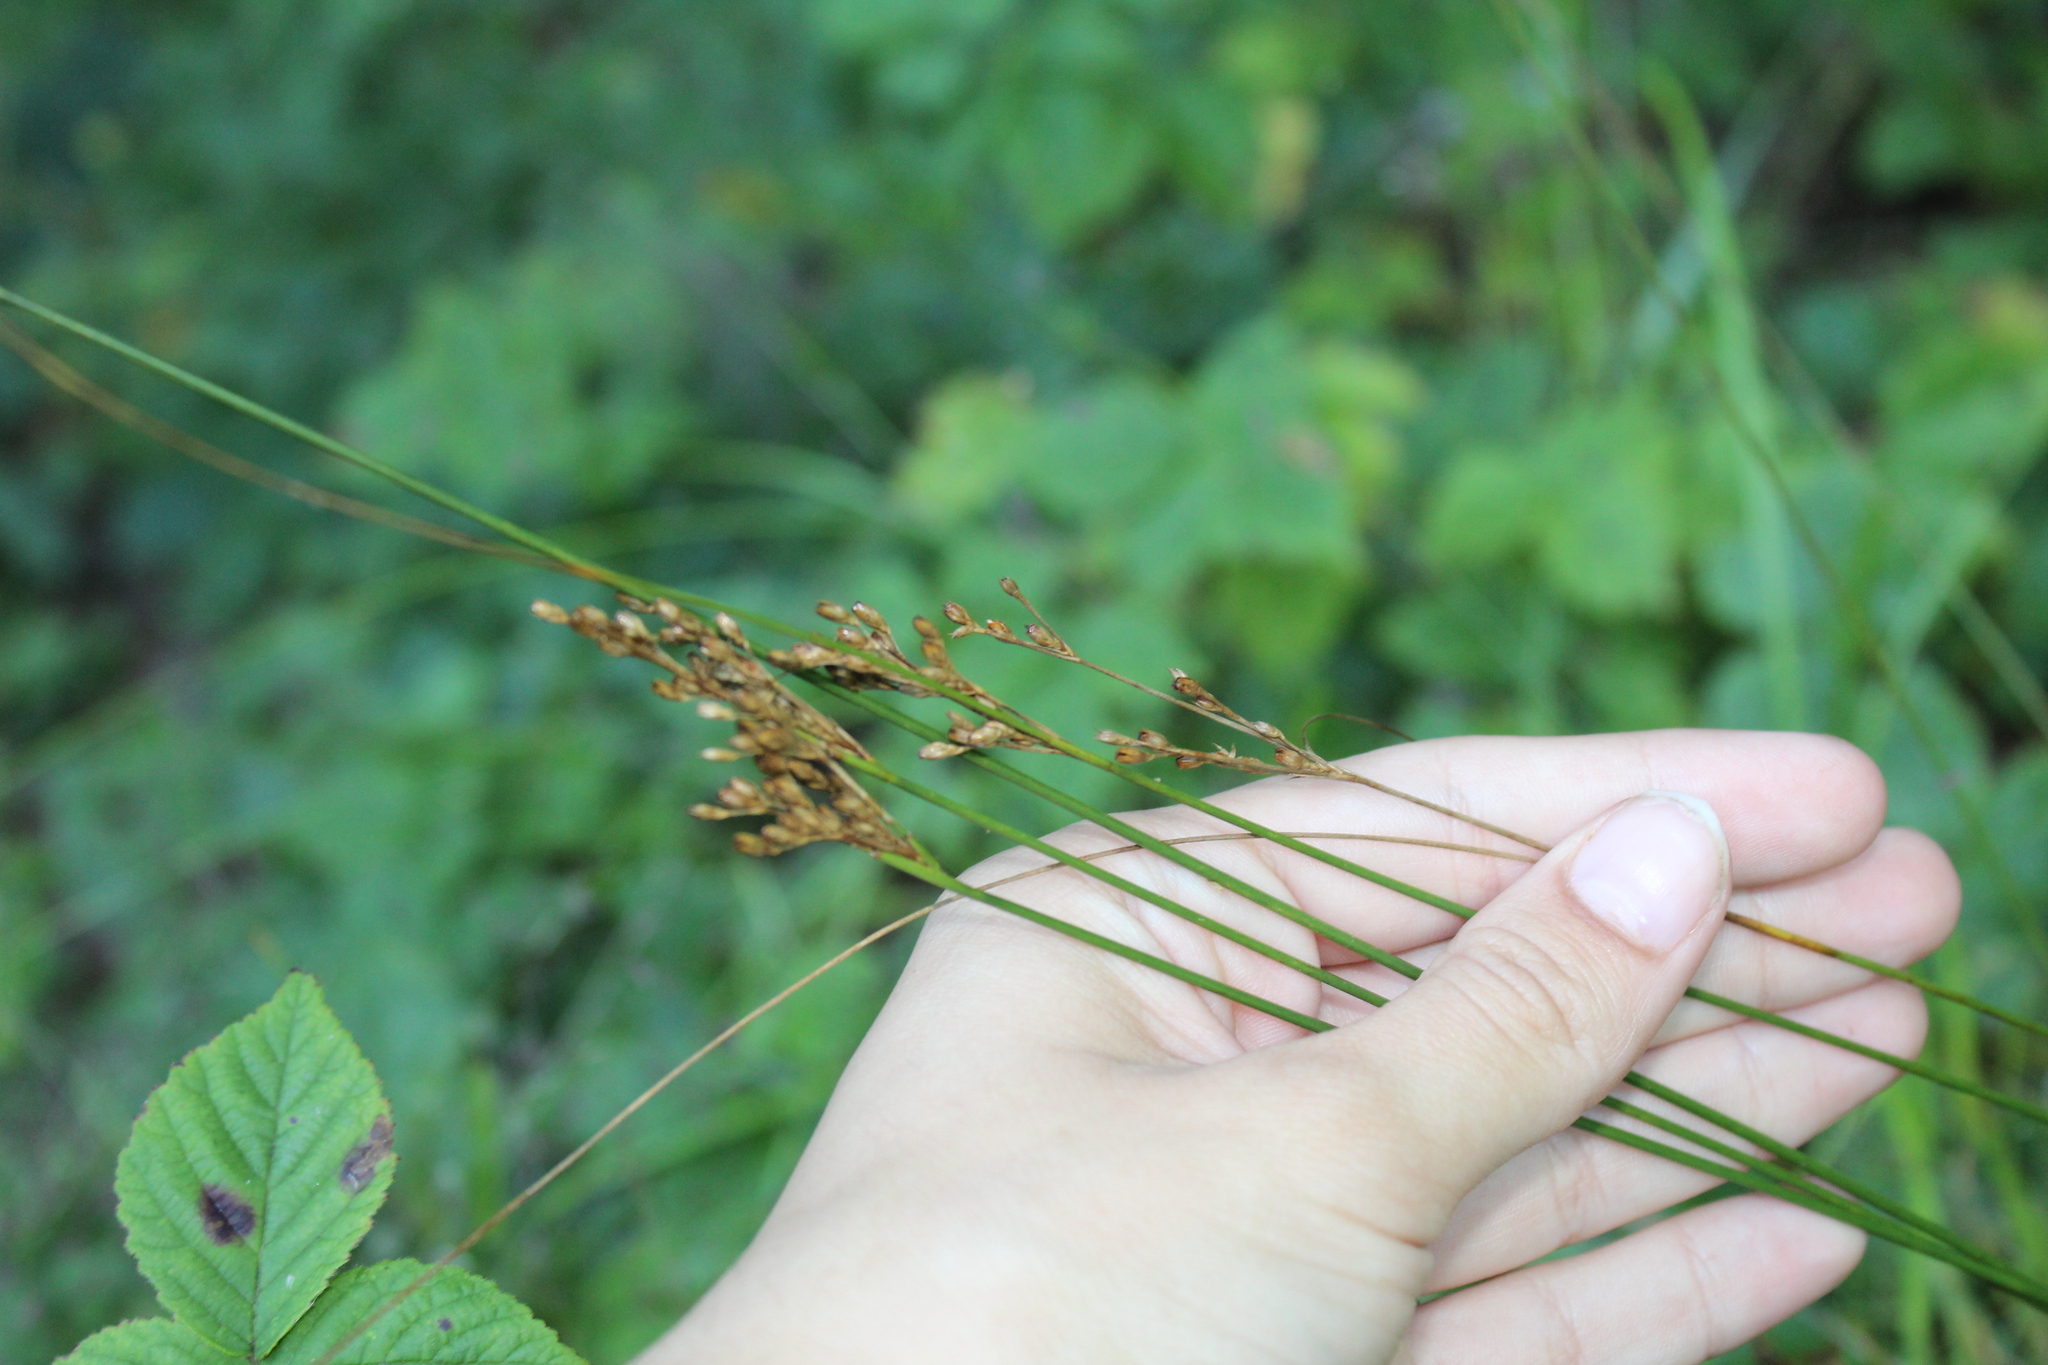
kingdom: Plantae
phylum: Tracheophyta
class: Liliopsida
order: Poales
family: Juncaceae
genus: Juncus
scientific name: Juncus greenei
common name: Greene's rush
